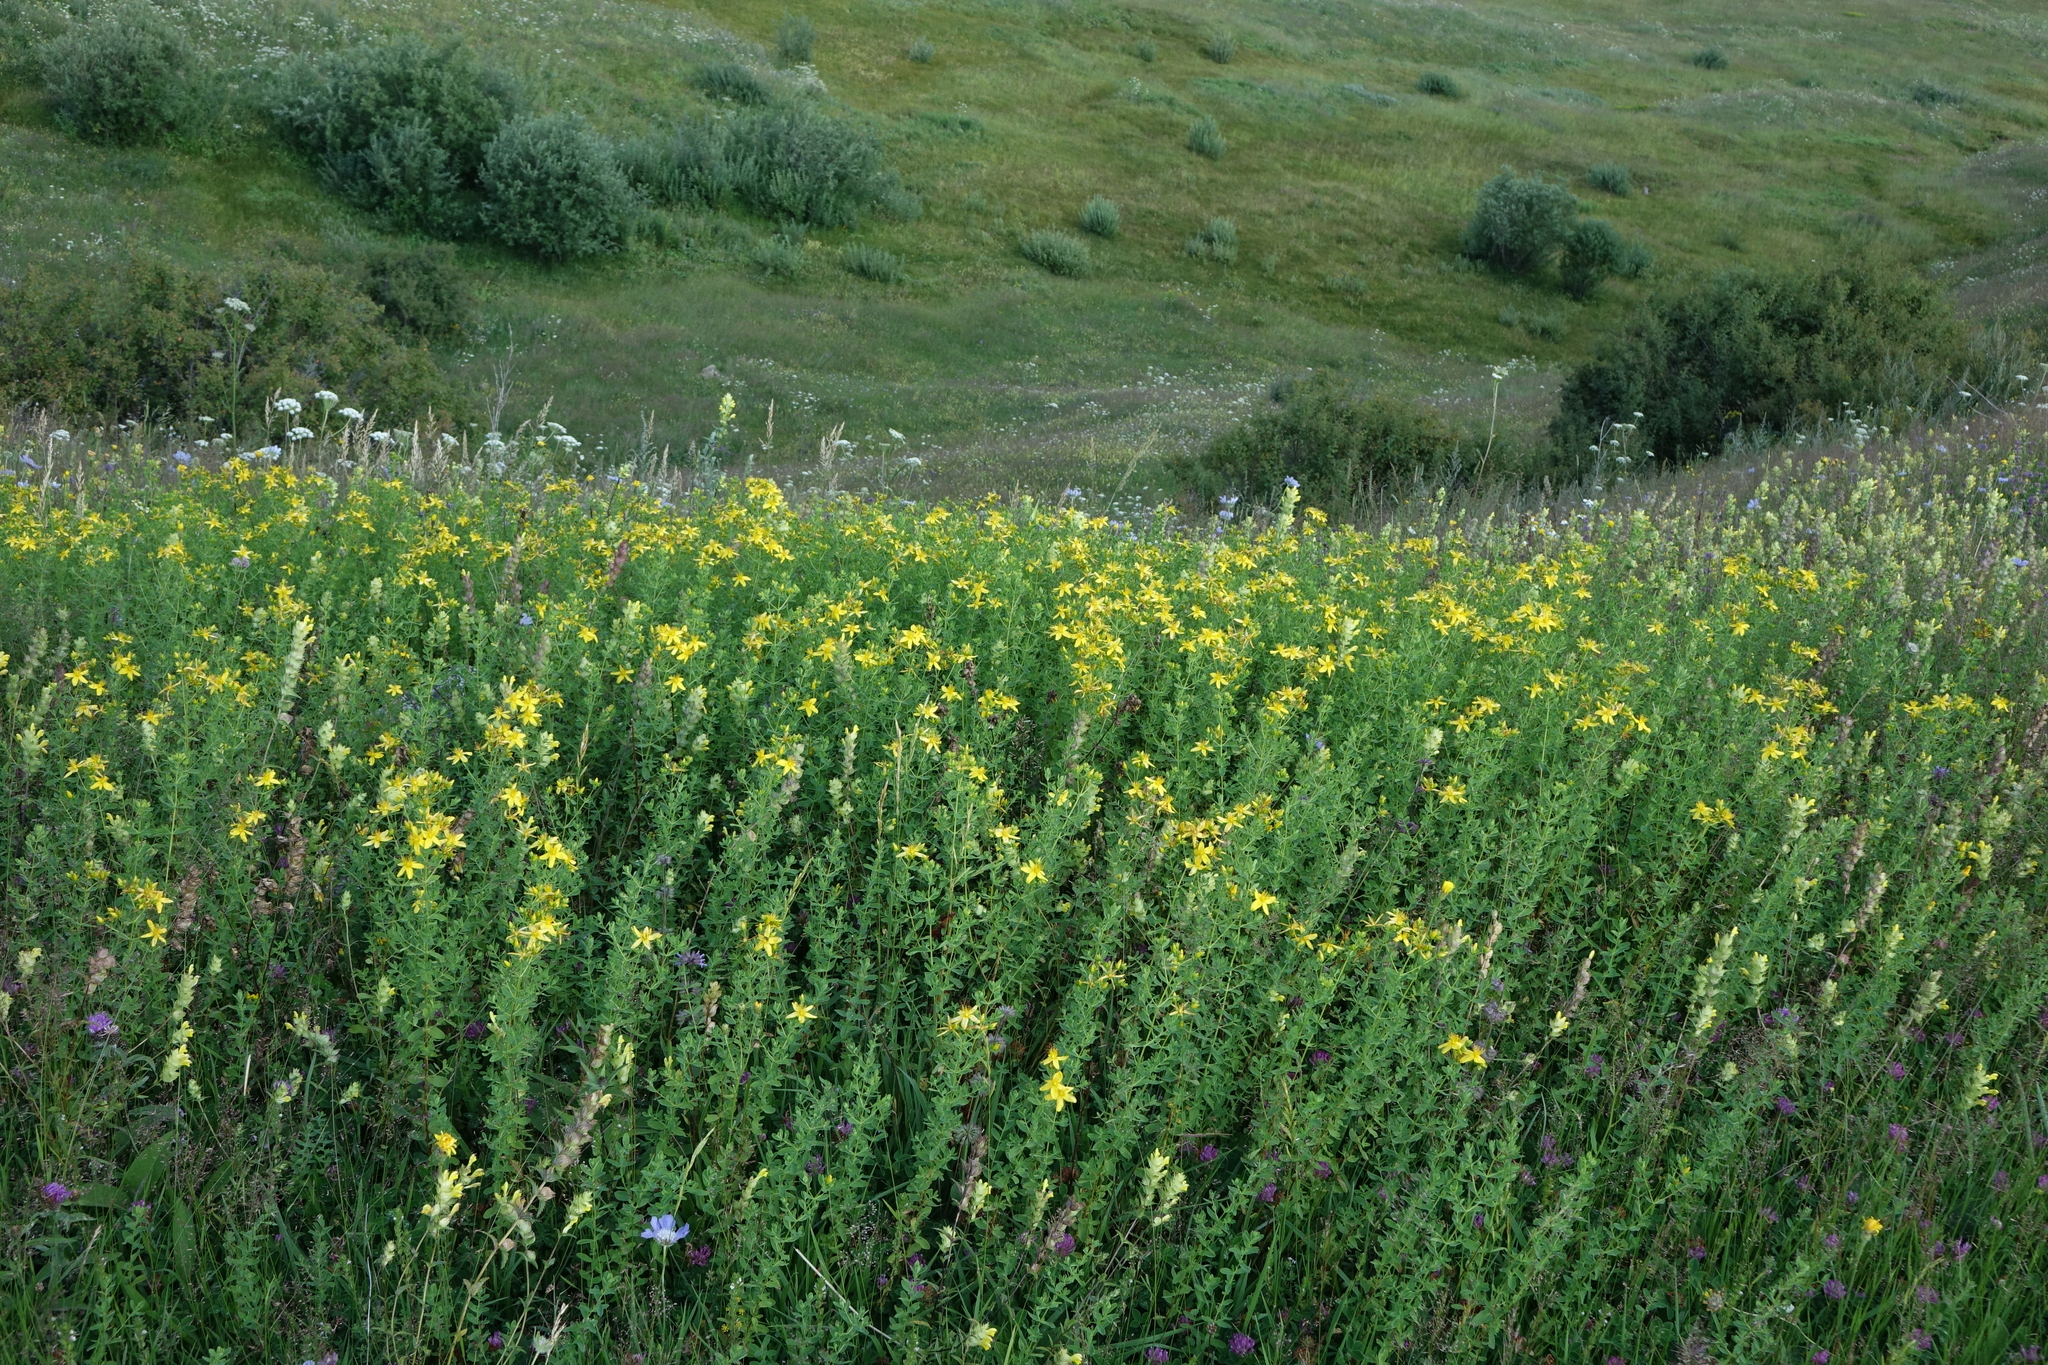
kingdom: Plantae
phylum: Tracheophyta
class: Magnoliopsida
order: Malpighiales
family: Hypericaceae
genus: Hypericum
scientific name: Hypericum perforatum
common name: Common st. johnswort
